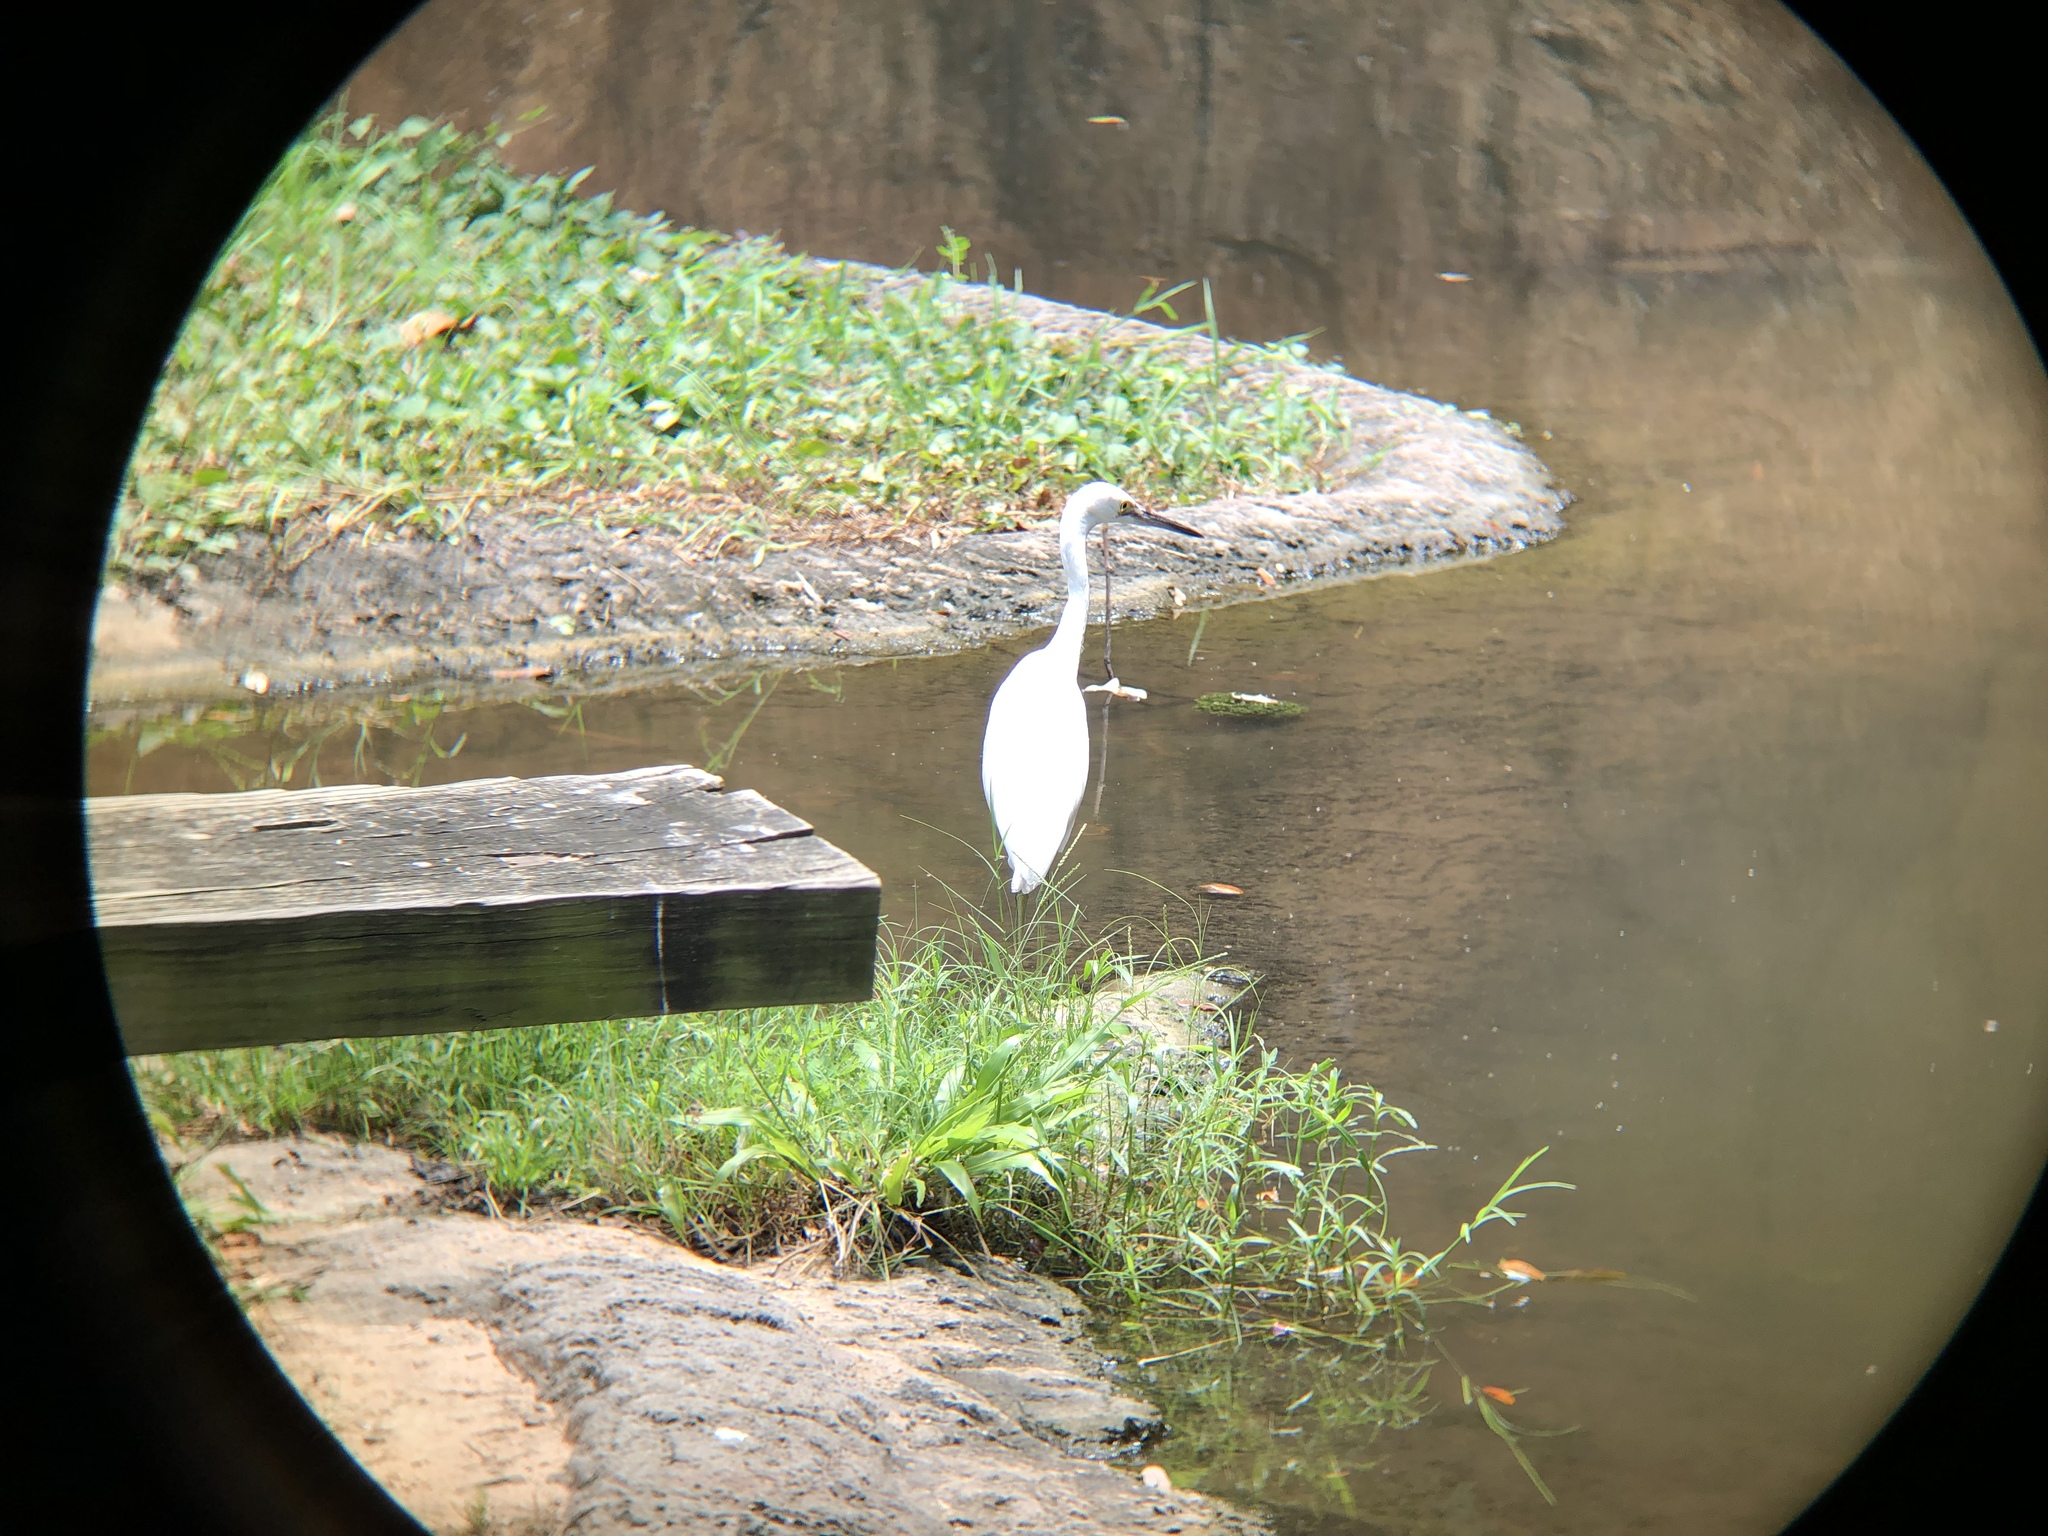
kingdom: Animalia
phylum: Chordata
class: Aves
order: Pelecaniformes
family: Ardeidae
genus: Egretta
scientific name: Egretta thula
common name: Snowy egret
